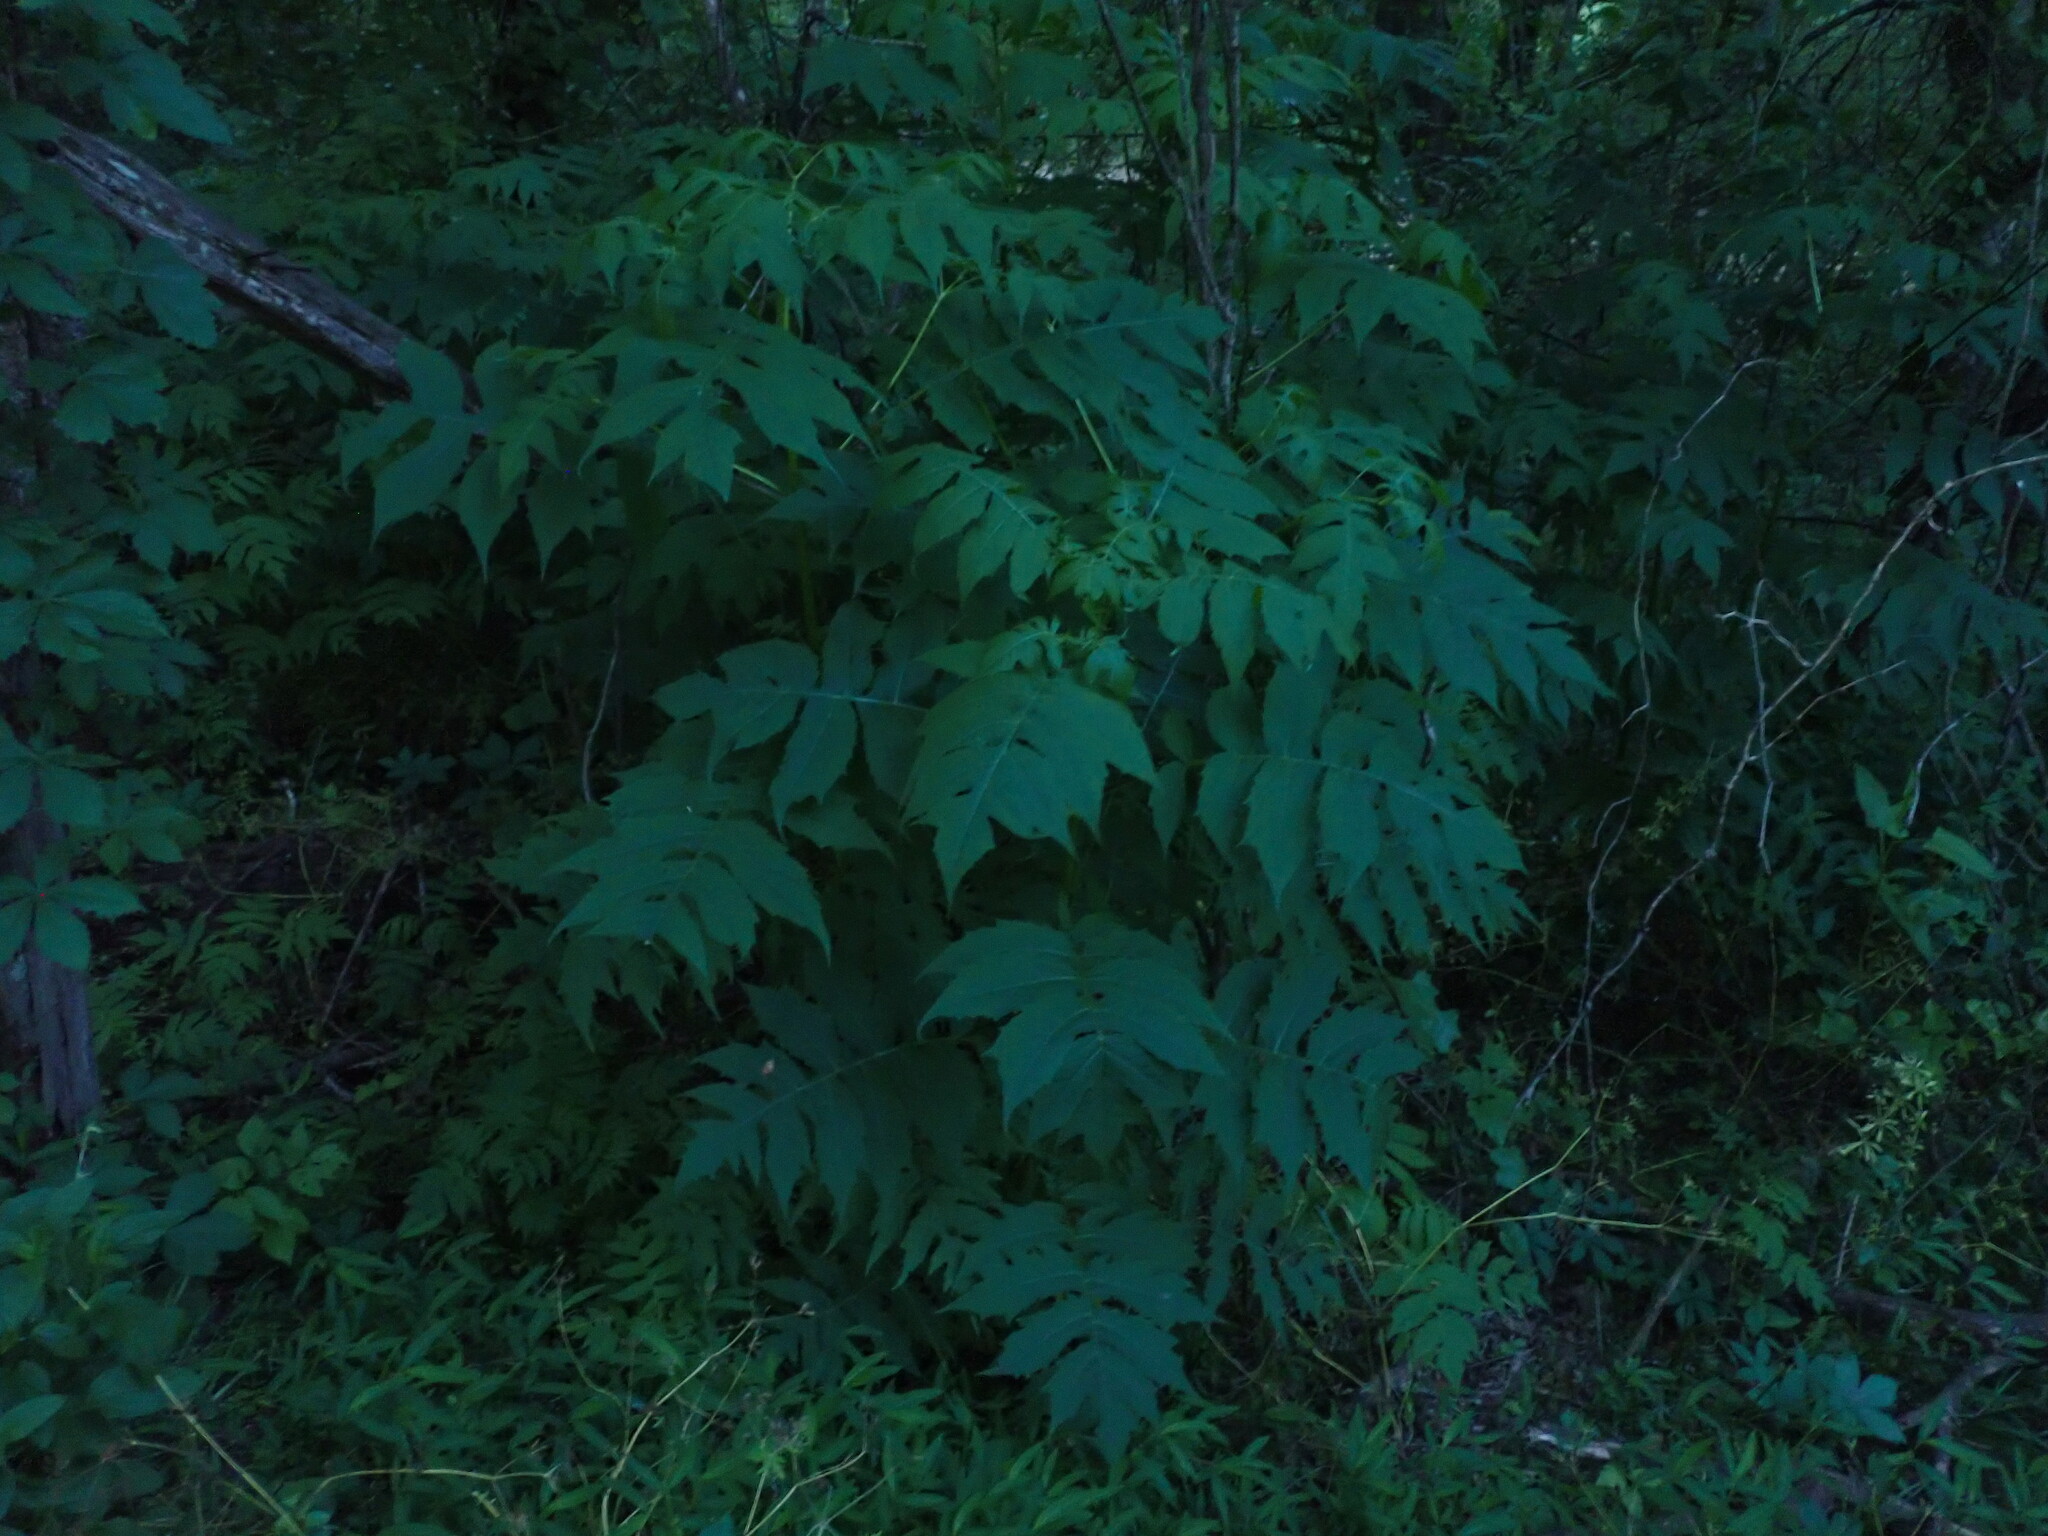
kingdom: Plantae
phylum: Tracheophyta
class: Magnoliopsida
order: Asterales
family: Asteraceae
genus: Polymnia
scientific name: Polymnia laevigata
